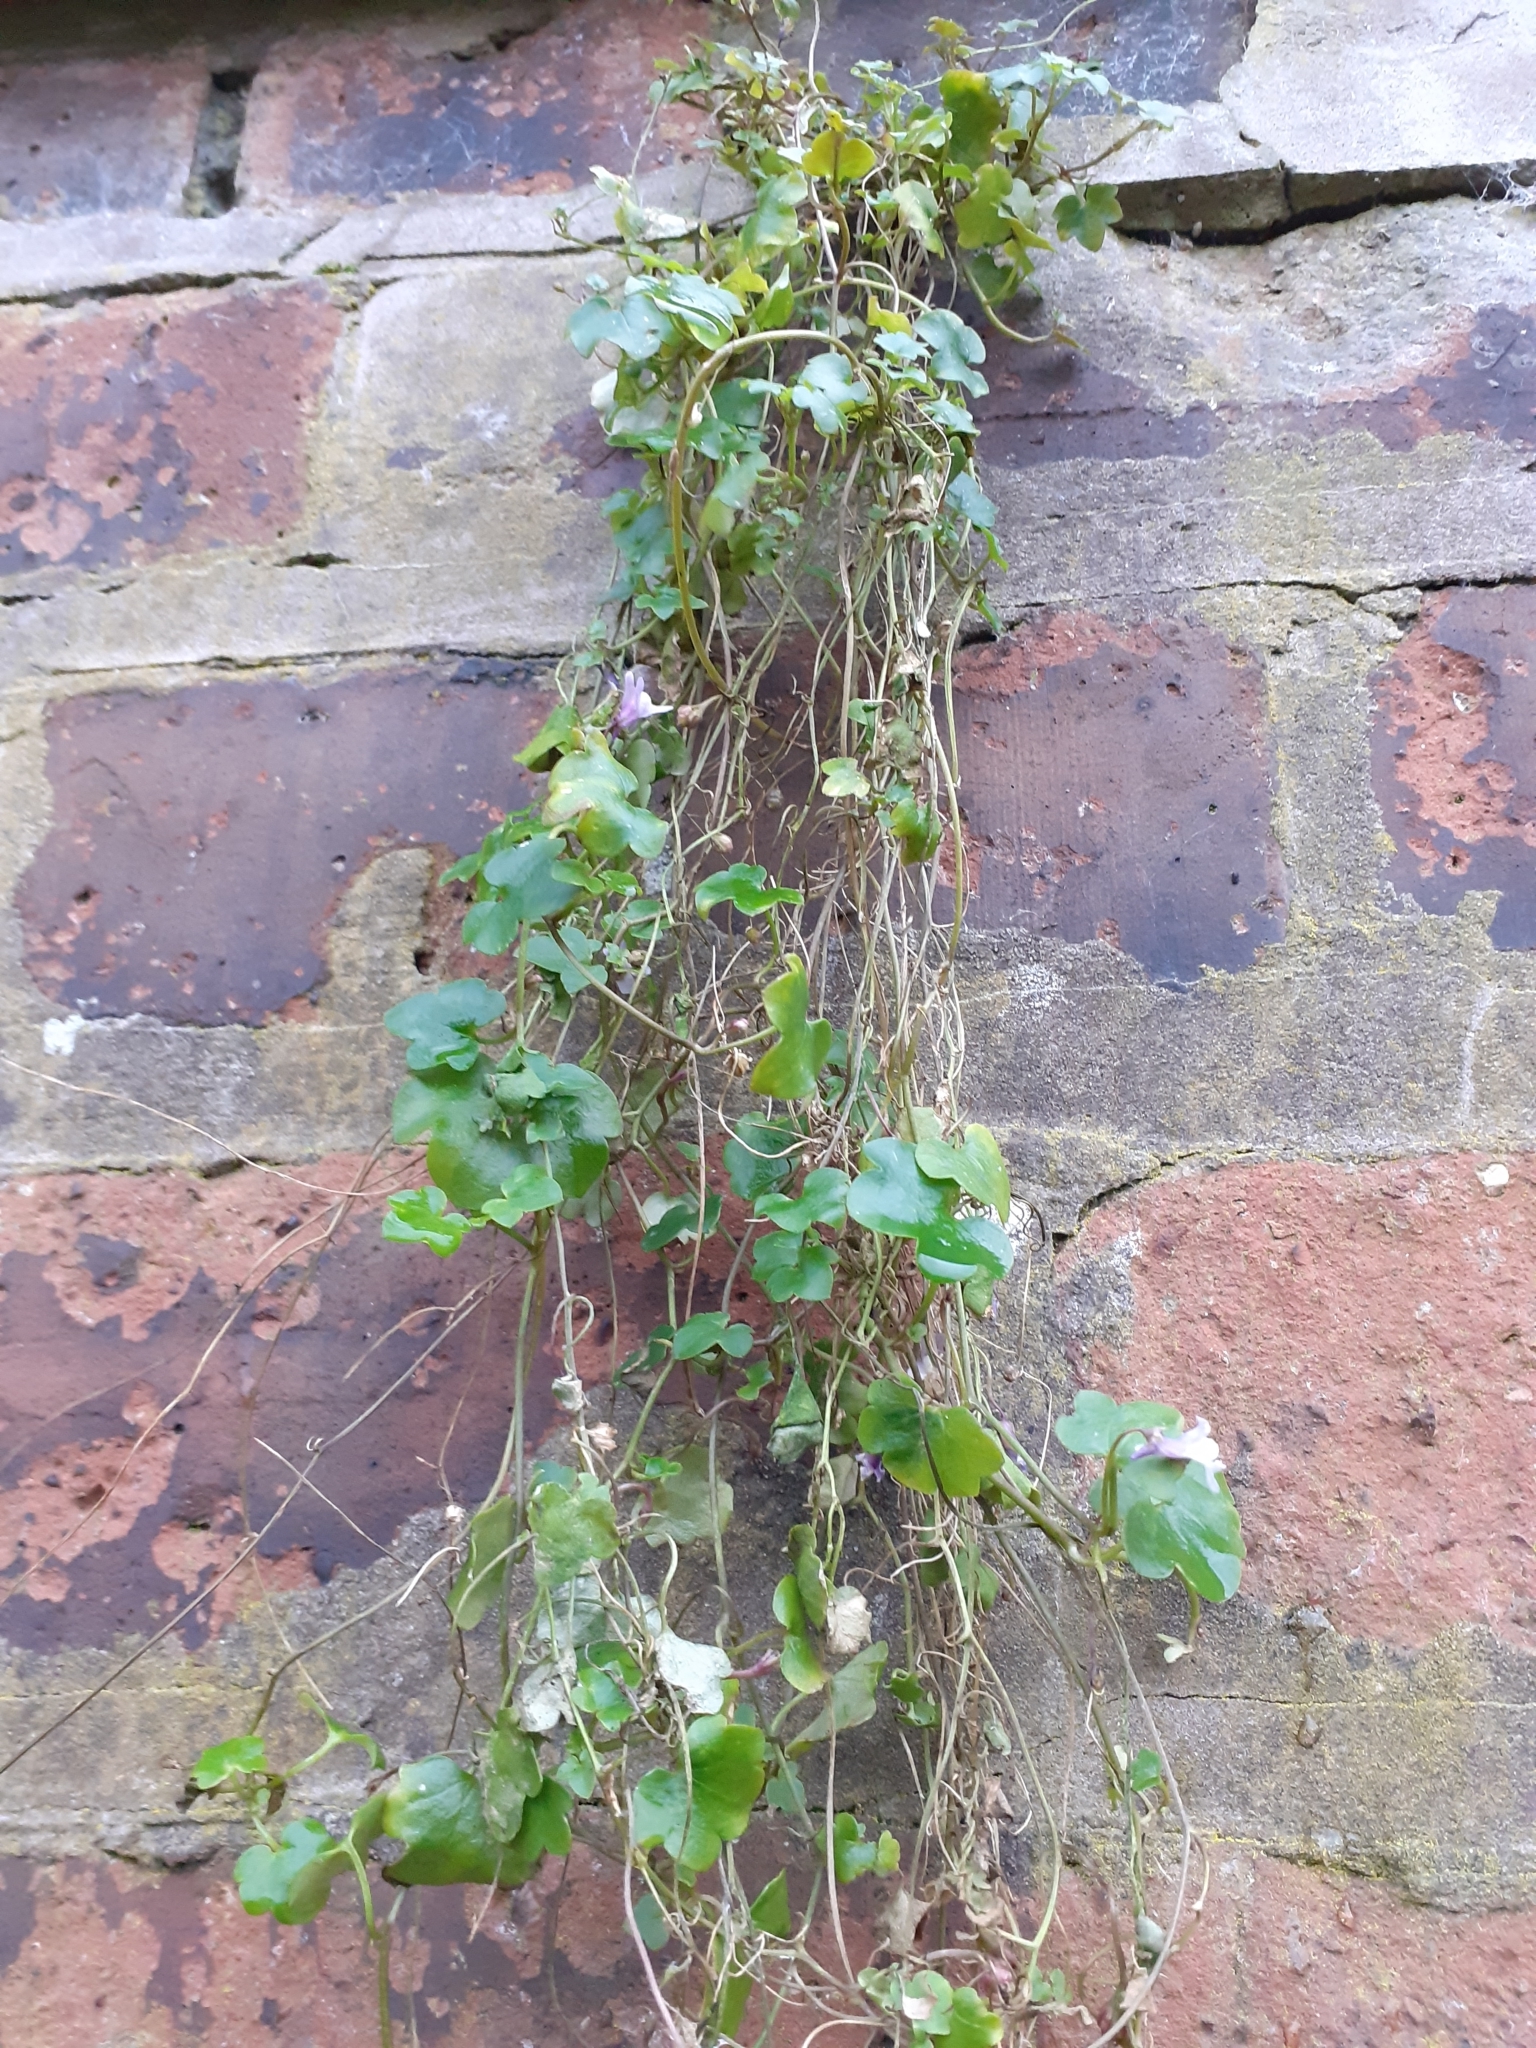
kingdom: Plantae
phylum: Tracheophyta
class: Magnoliopsida
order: Lamiales
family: Plantaginaceae
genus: Cymbalaria
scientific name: Cymbalaria muralis
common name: Ivy-leaved toadflax
